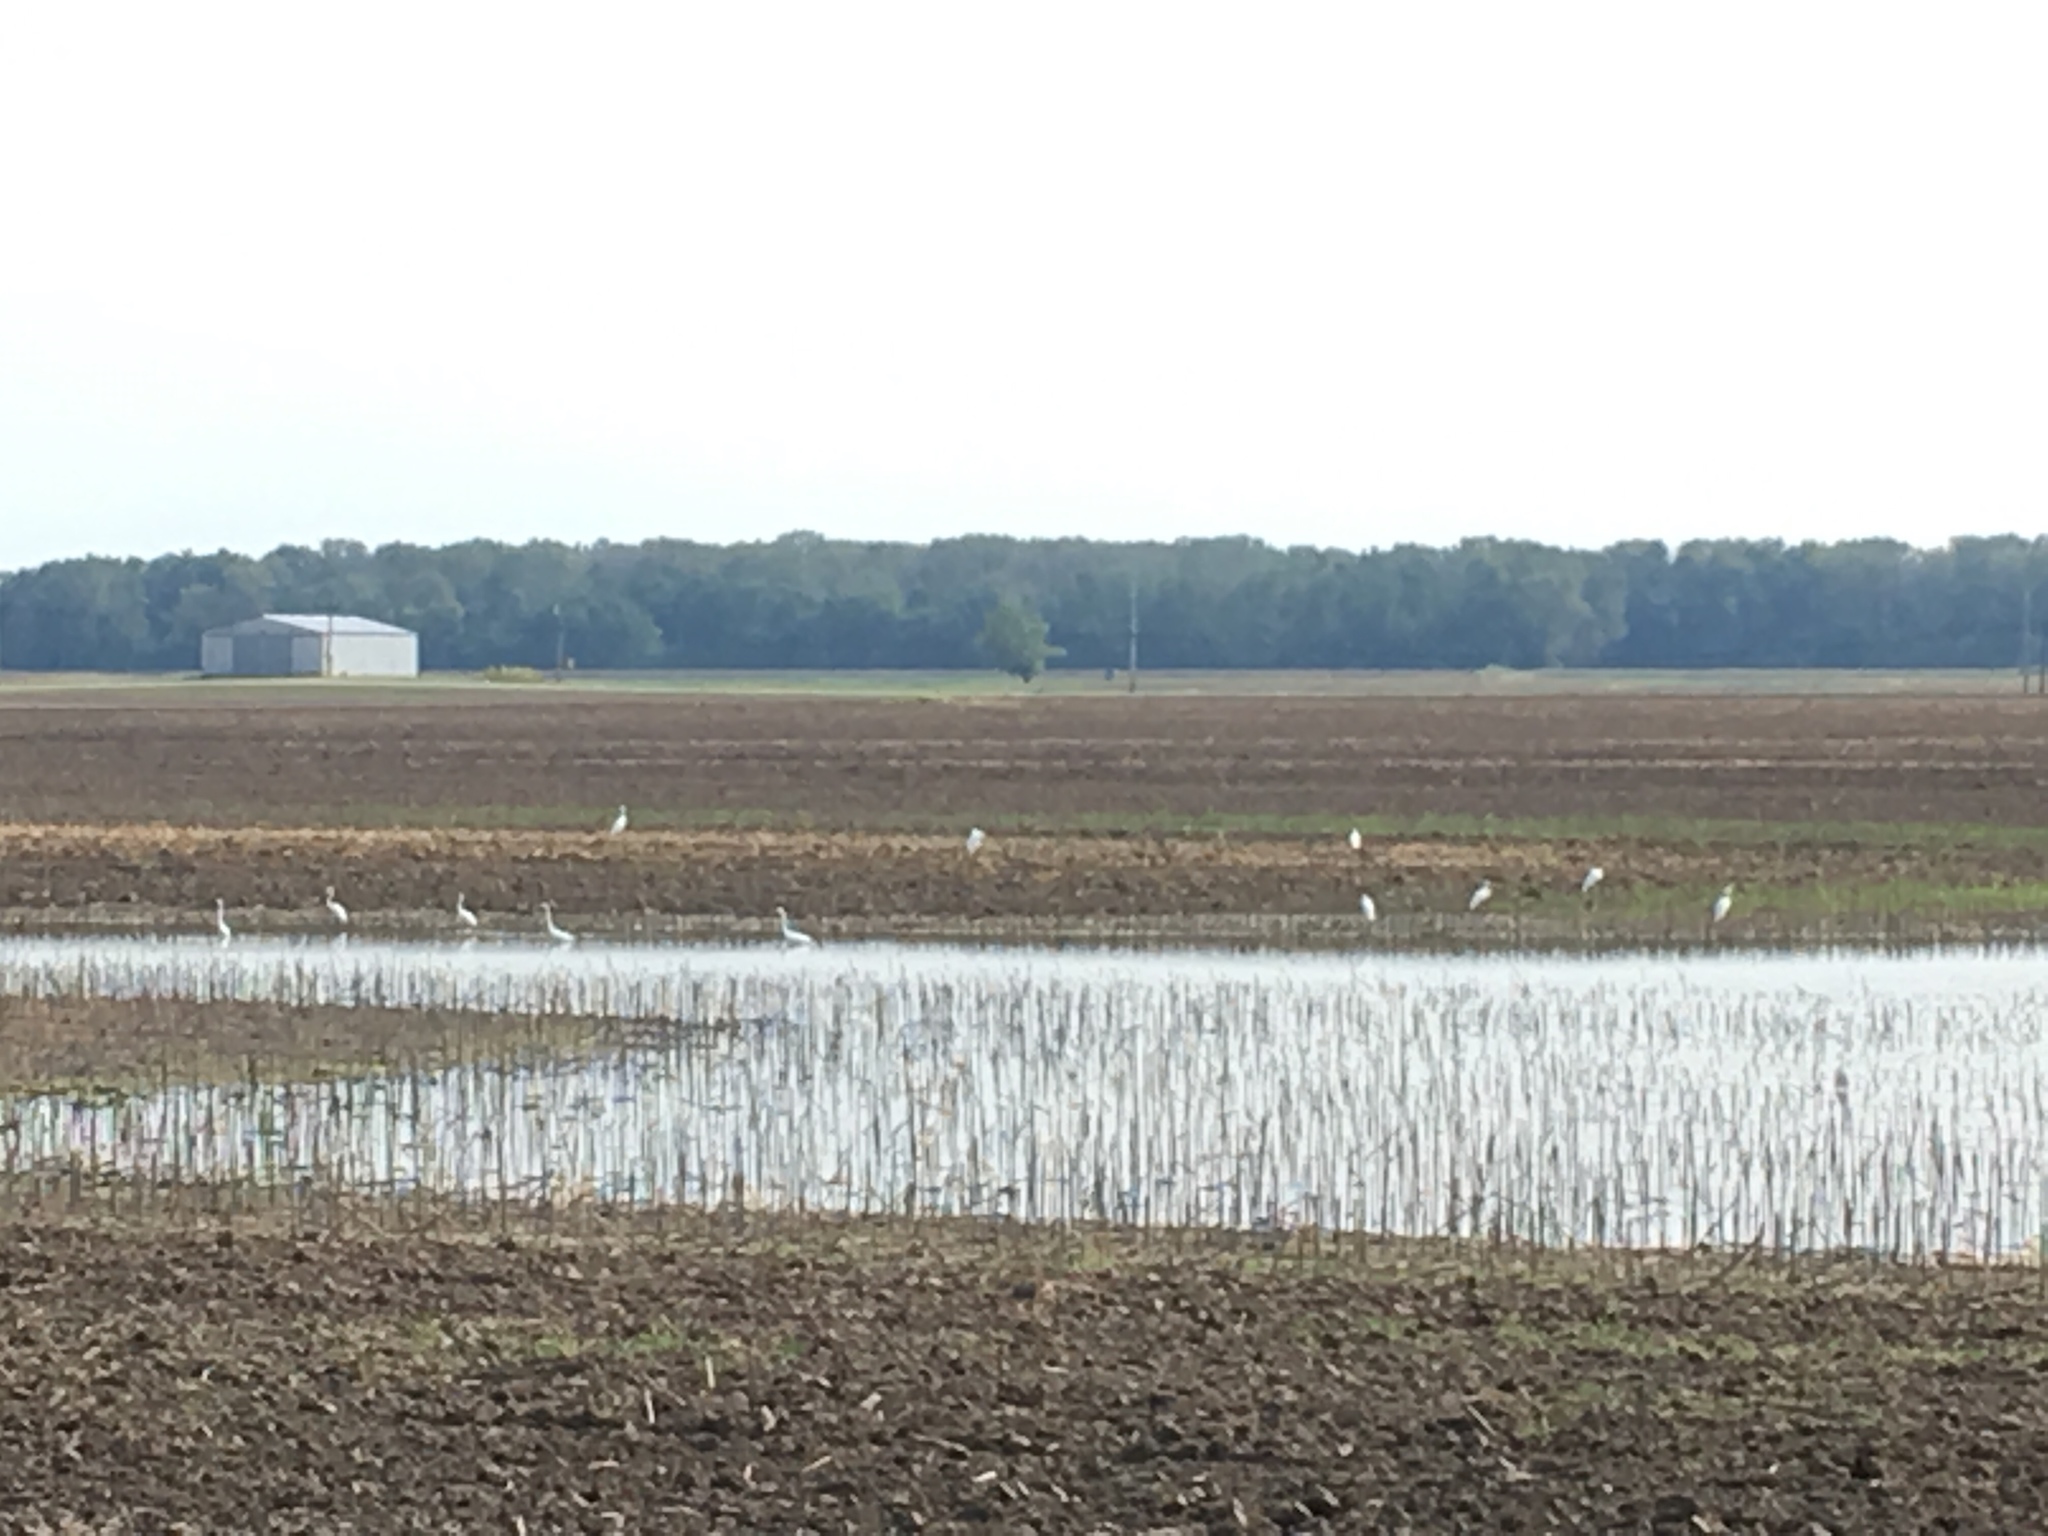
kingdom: Animalia
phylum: Chordata
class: Aves
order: Pelecaniformes
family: Ardeidae
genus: Ardea
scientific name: Ardea alba
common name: Great egret
